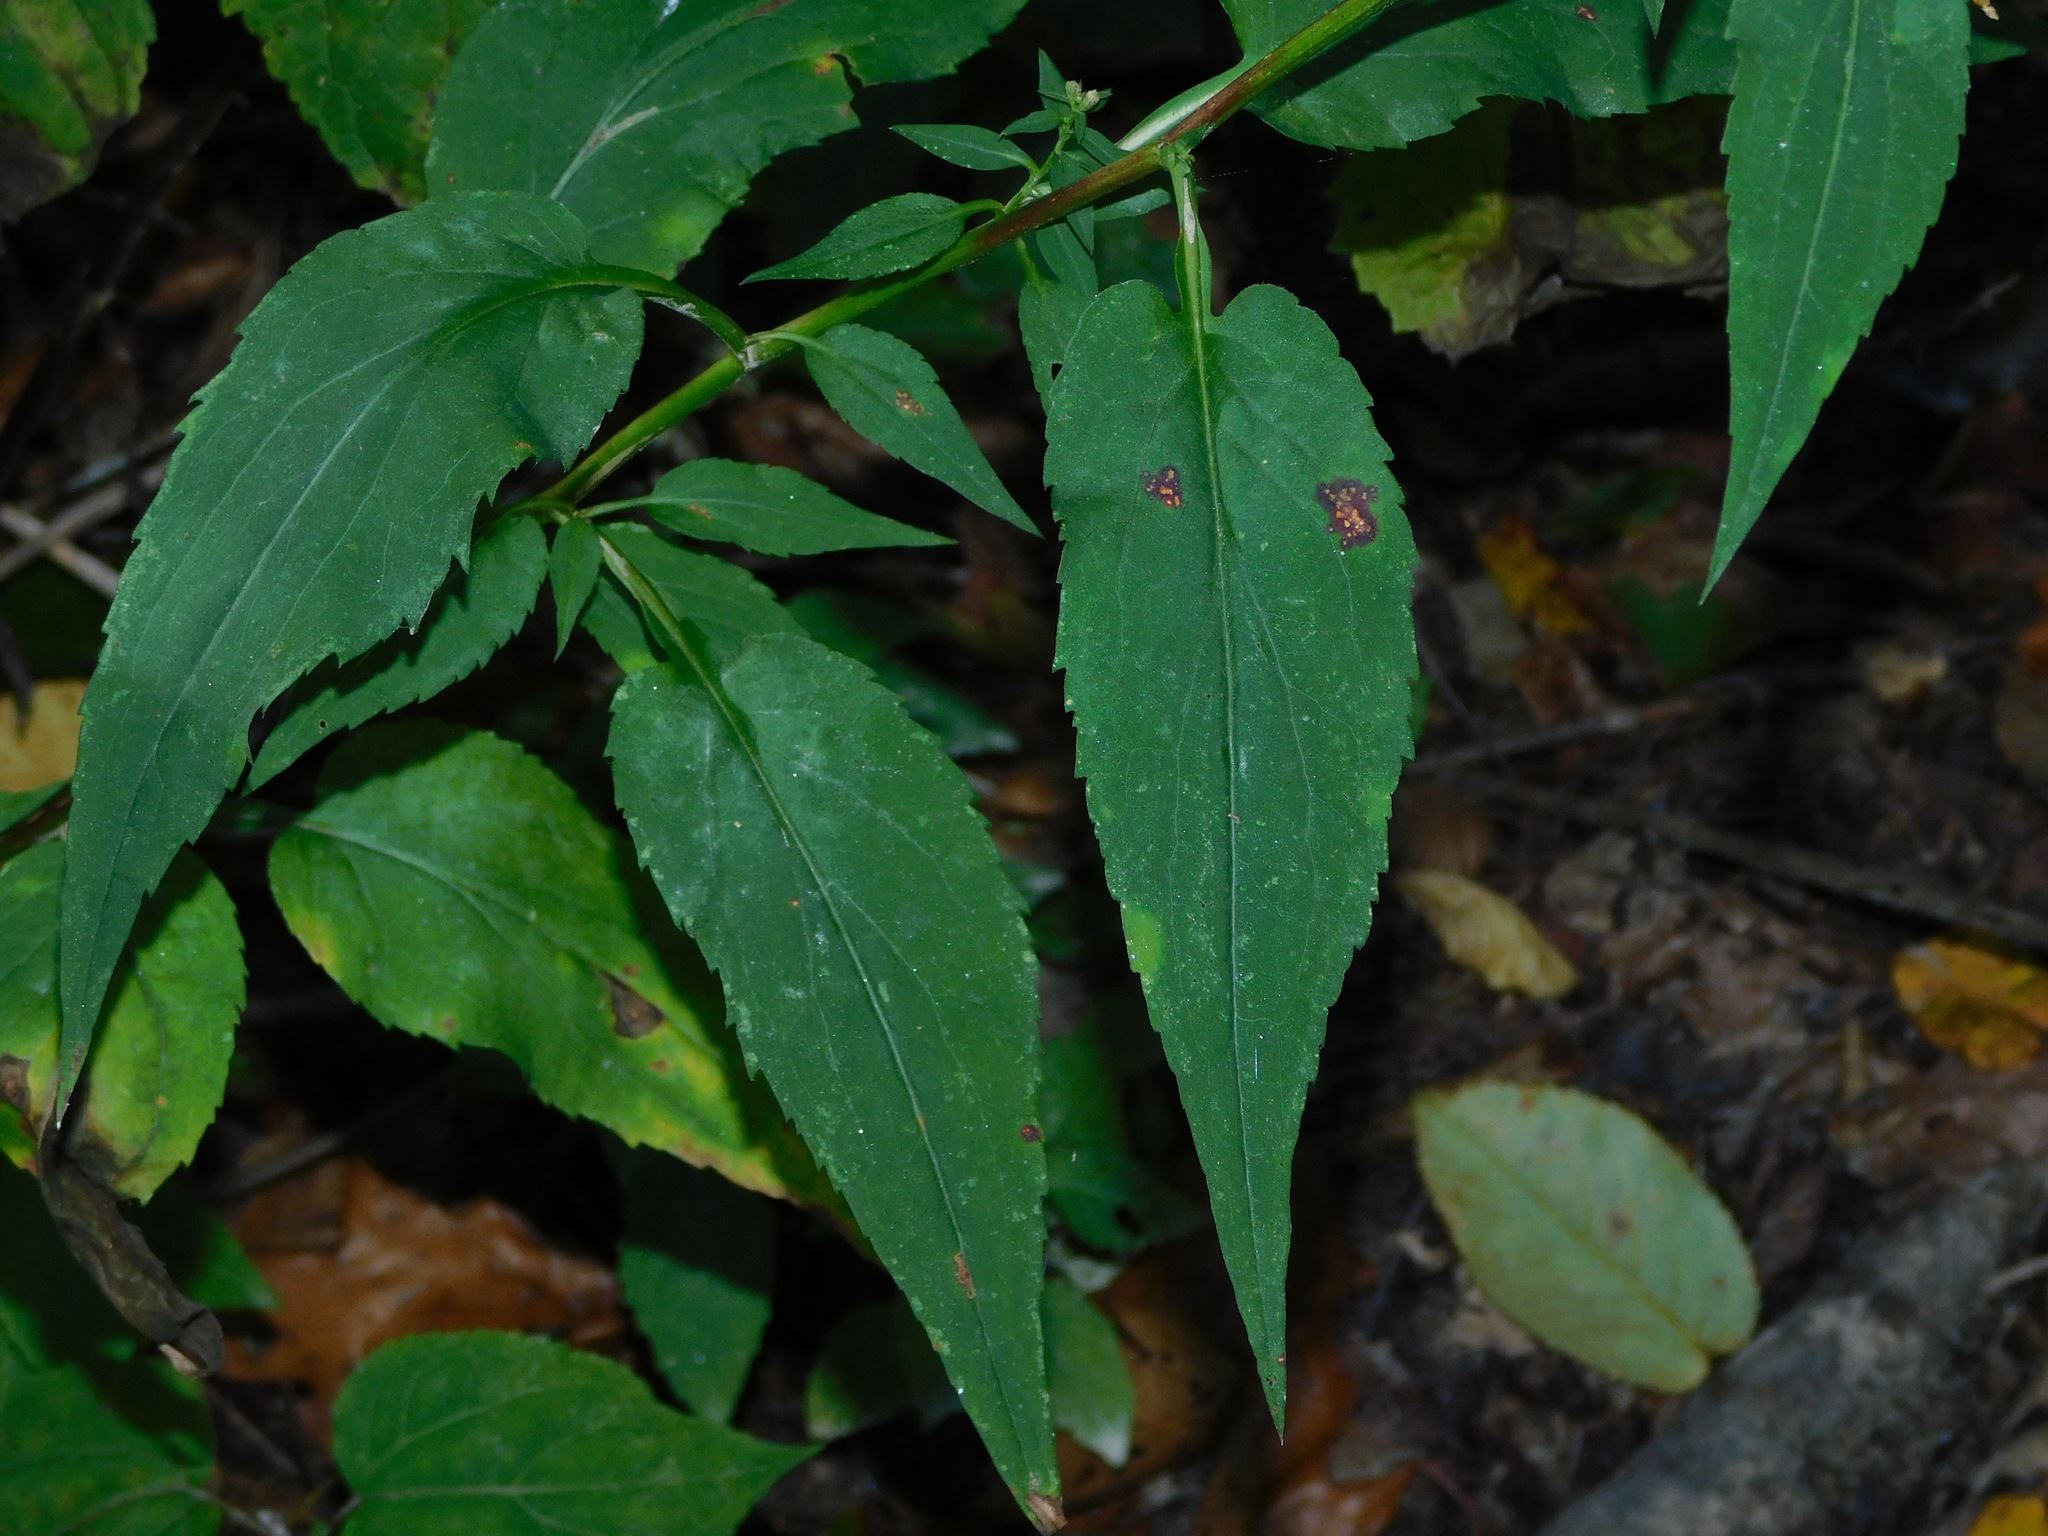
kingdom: Plantae
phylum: Tracheophyta
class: Magnoliopsida
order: Asterales
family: Asteraceae
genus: Symphyotrichum
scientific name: Symphyotrichum cordifolium
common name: Beeweed
